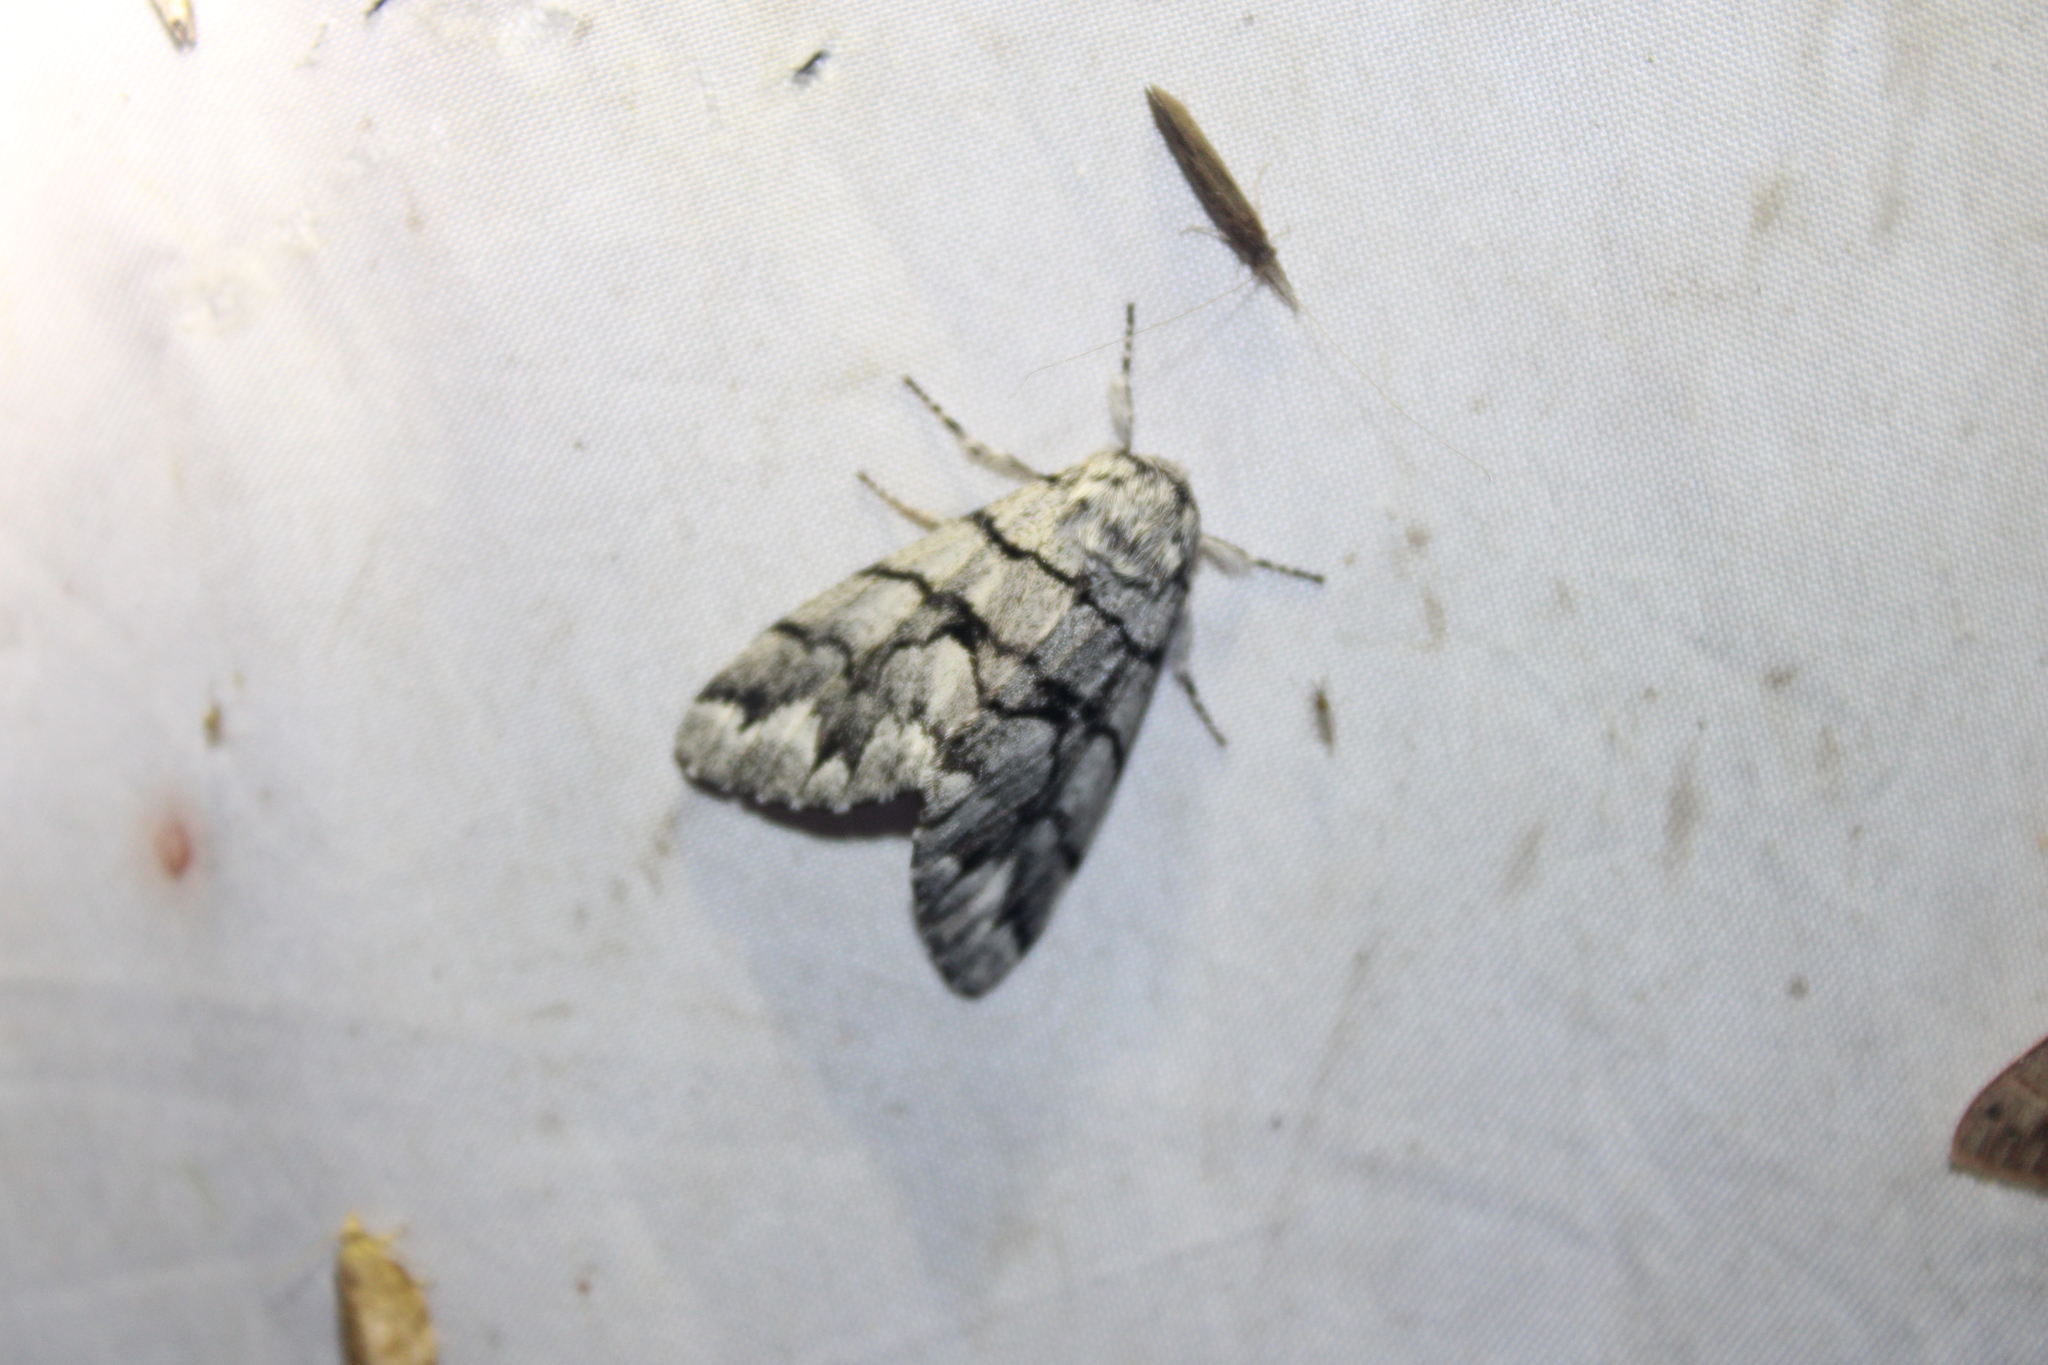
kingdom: Animalia
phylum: Arthropoda
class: Insecta
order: Lepidoptera
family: Noctuidae
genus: Panthea
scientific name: Panthea furcilla
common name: Eastern panthea moth
